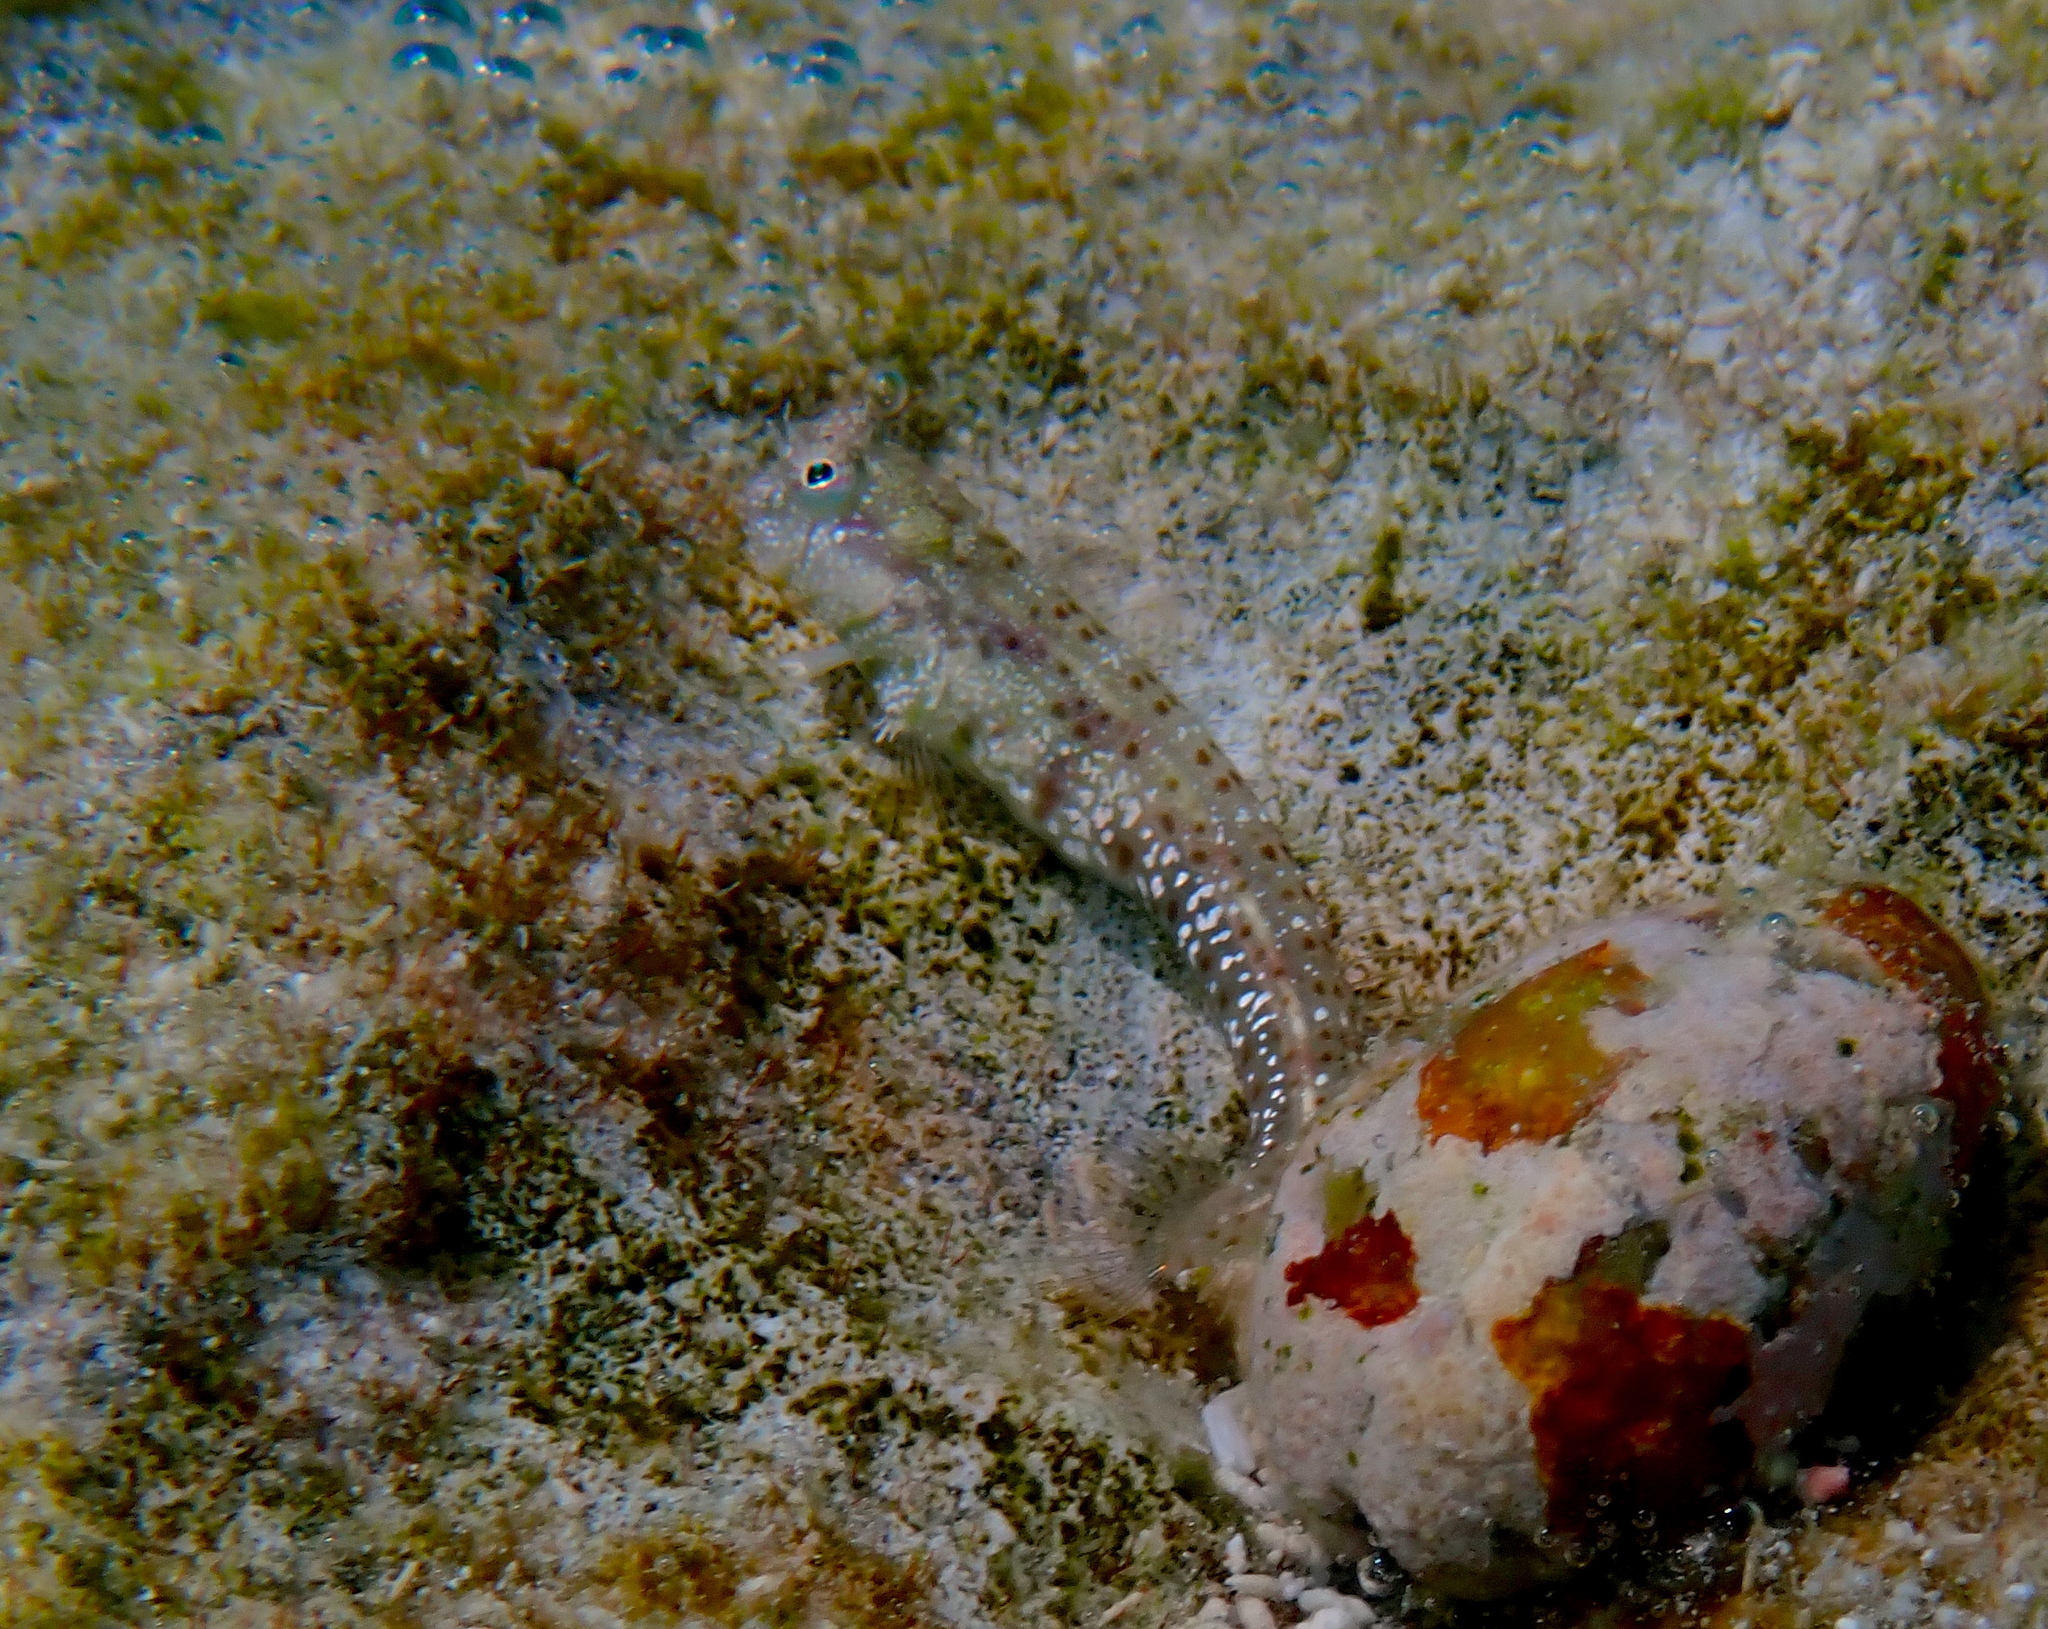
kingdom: Animalia
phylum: Chordata
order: Perciformes
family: Blenniidae
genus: Glyptoparus
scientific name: Glyptoparus delicatulus
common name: Delicate blenny
